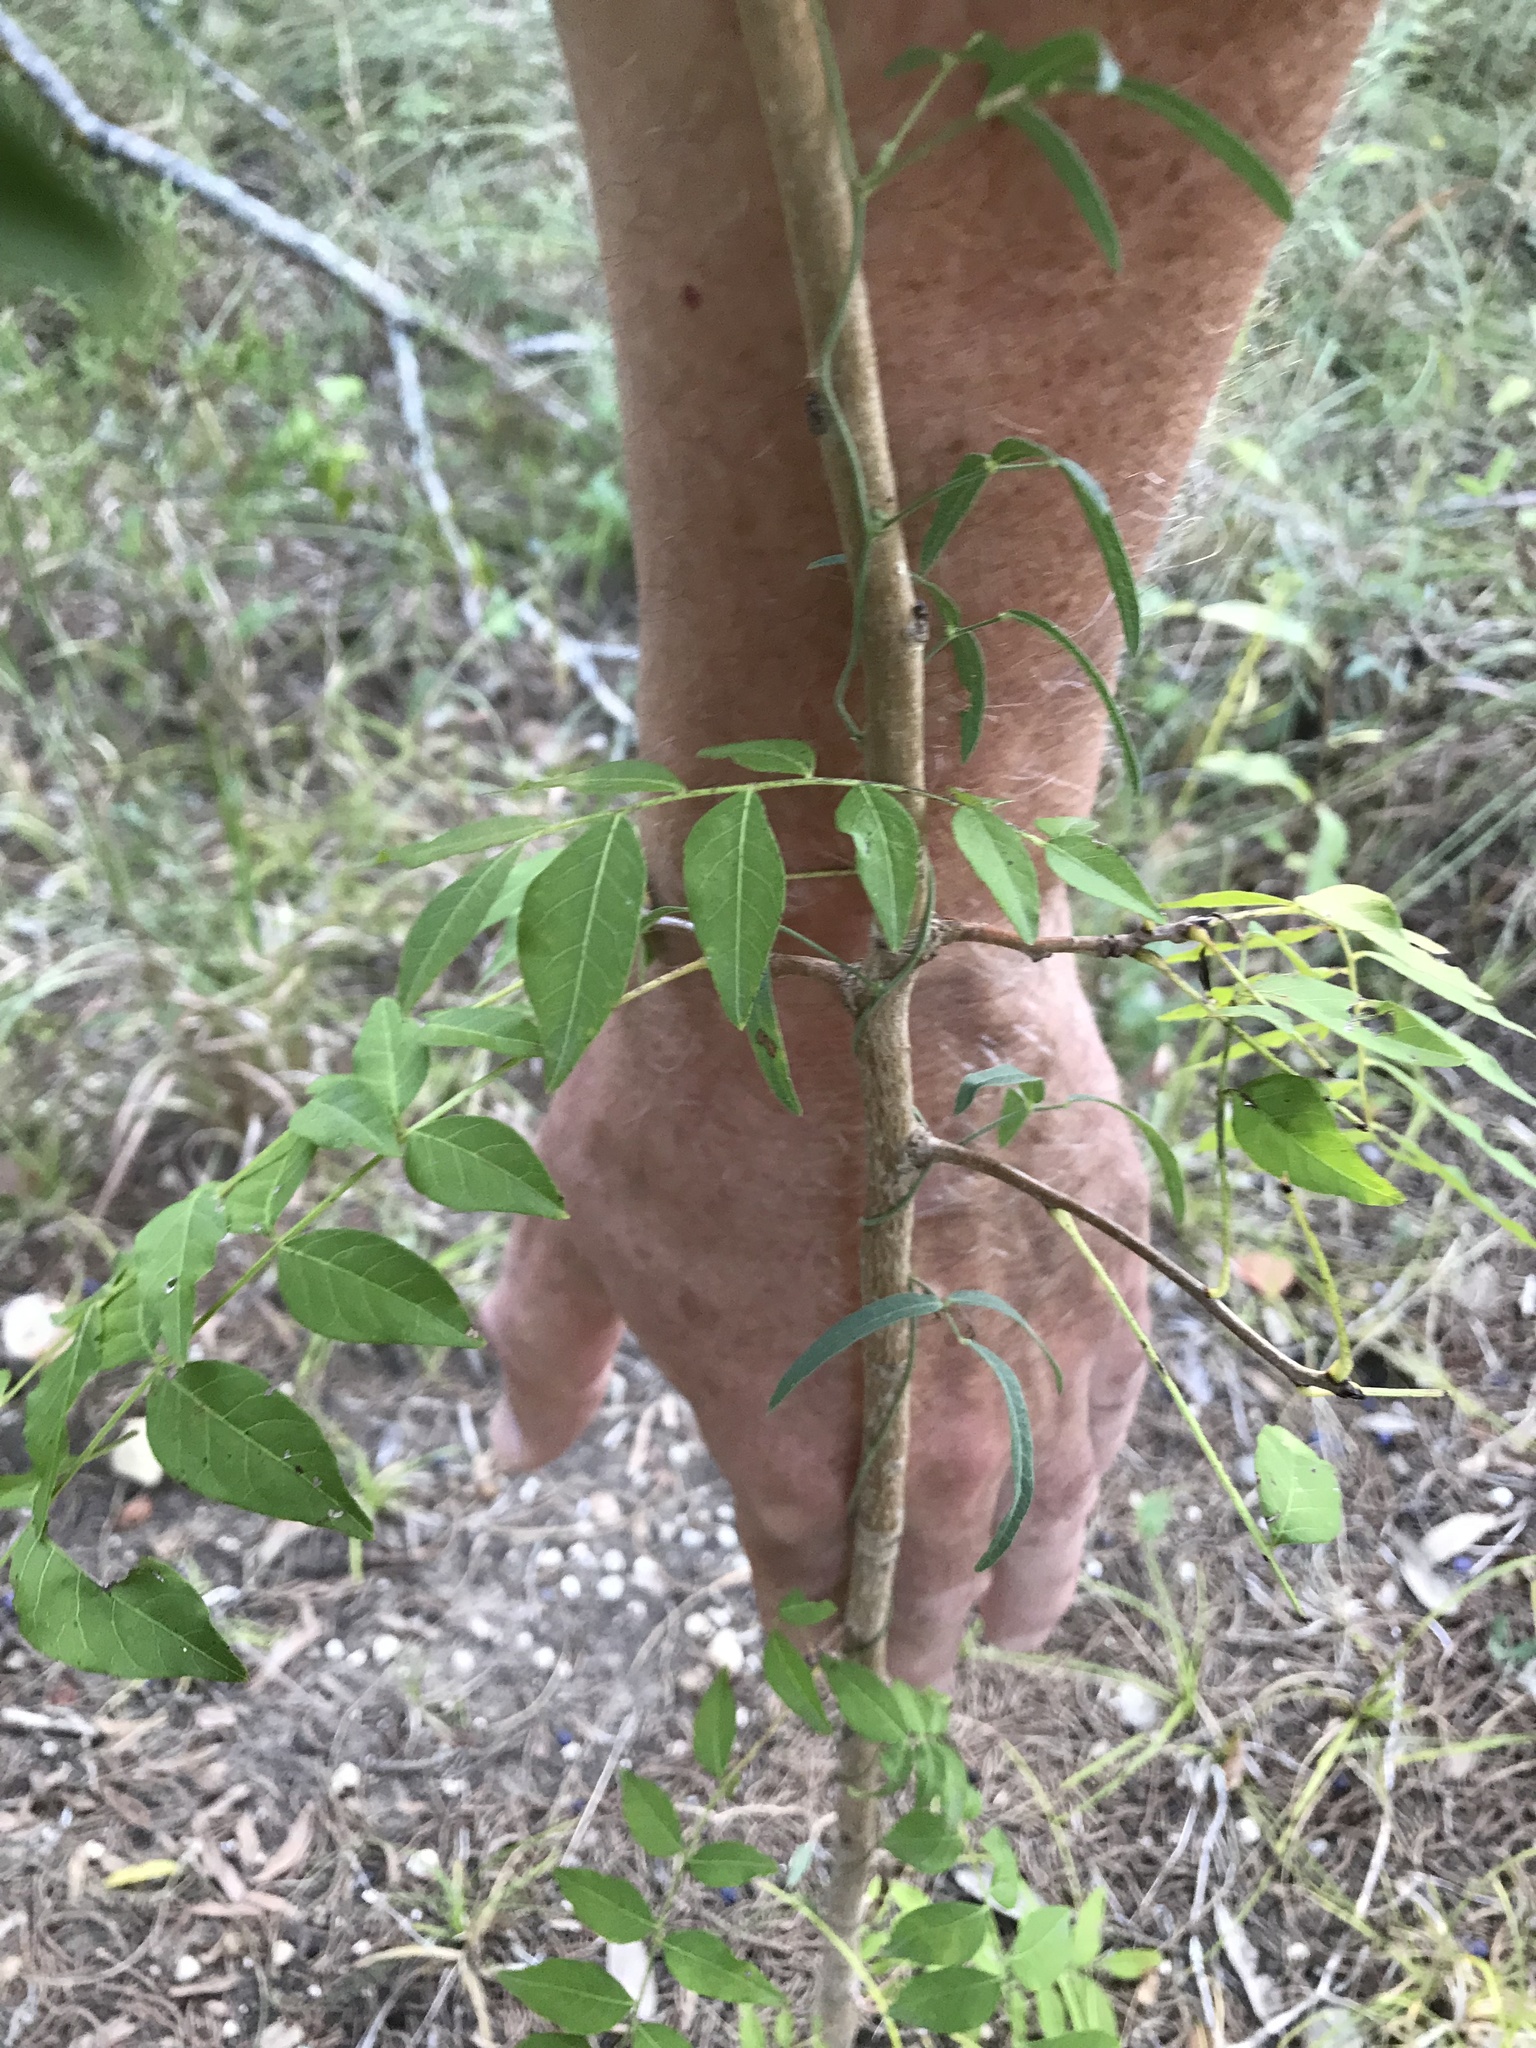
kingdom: Plantae
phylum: Tracheophyta
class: Magnoliopsida
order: Sapindales
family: Anacardiaceae
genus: Pistacia
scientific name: Pistacia chinensis
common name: Chinese pistache
